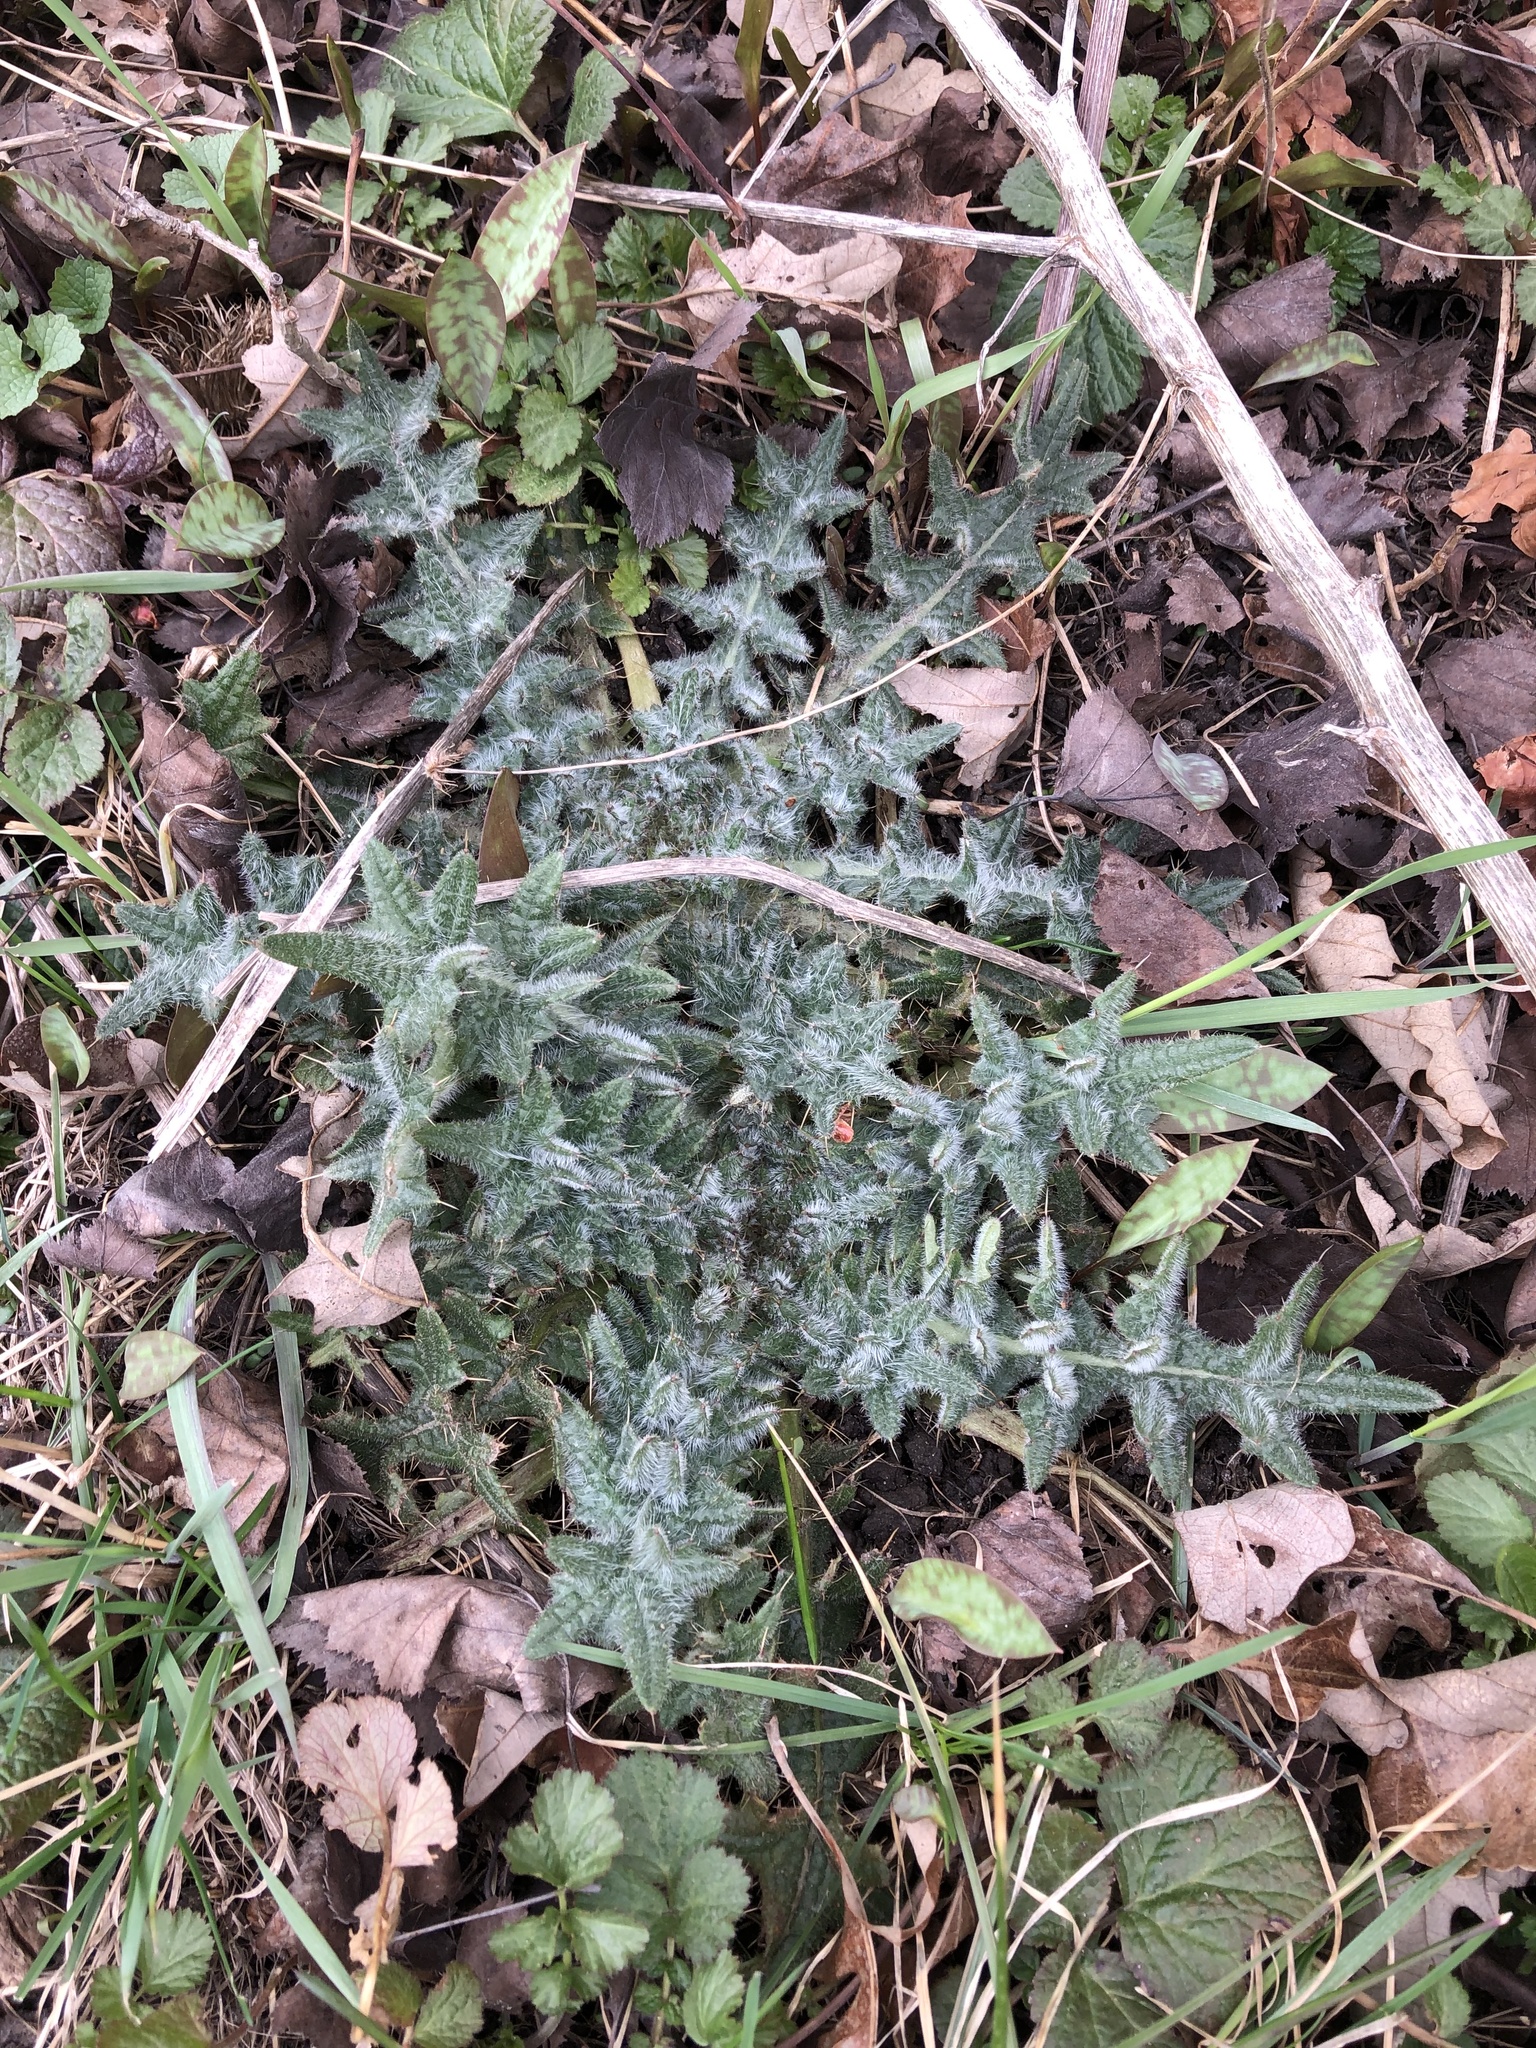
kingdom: Plantae
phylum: Tracheophyta
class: Magnoliopsida
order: Asterales
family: Asteraceae
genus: Cirsium
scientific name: Cirsium vulgare
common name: Bull thistle
